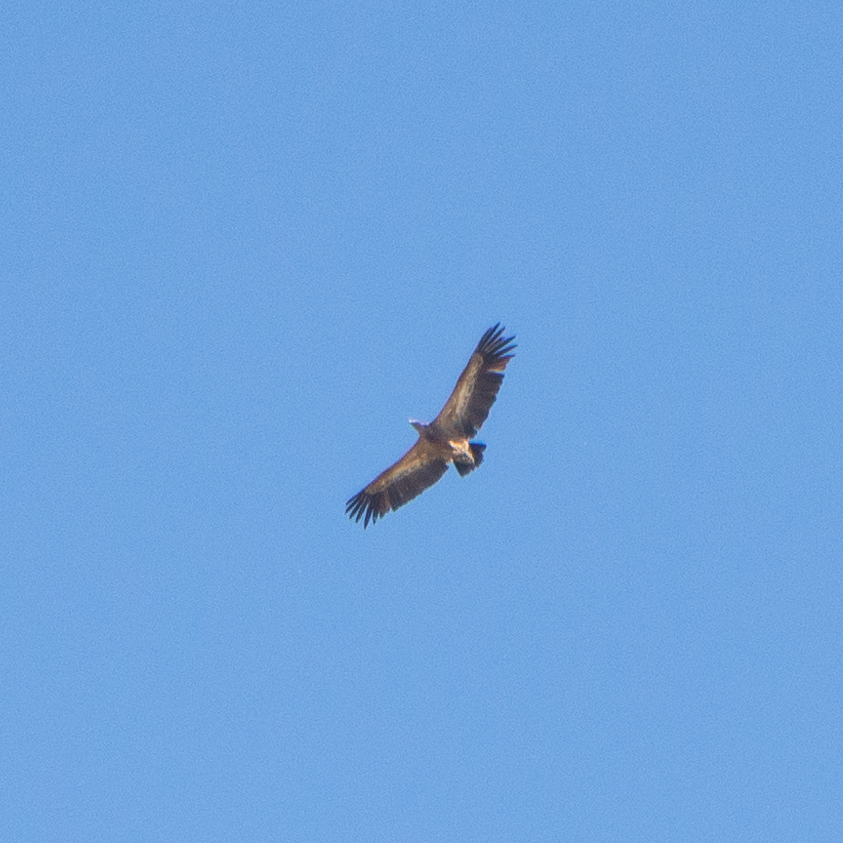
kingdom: Animalia
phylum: Chordata
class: Aves
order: Accipitriformes
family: Accipitridae
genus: Gyps
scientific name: Gyps fulvus
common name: Griffon vulture
